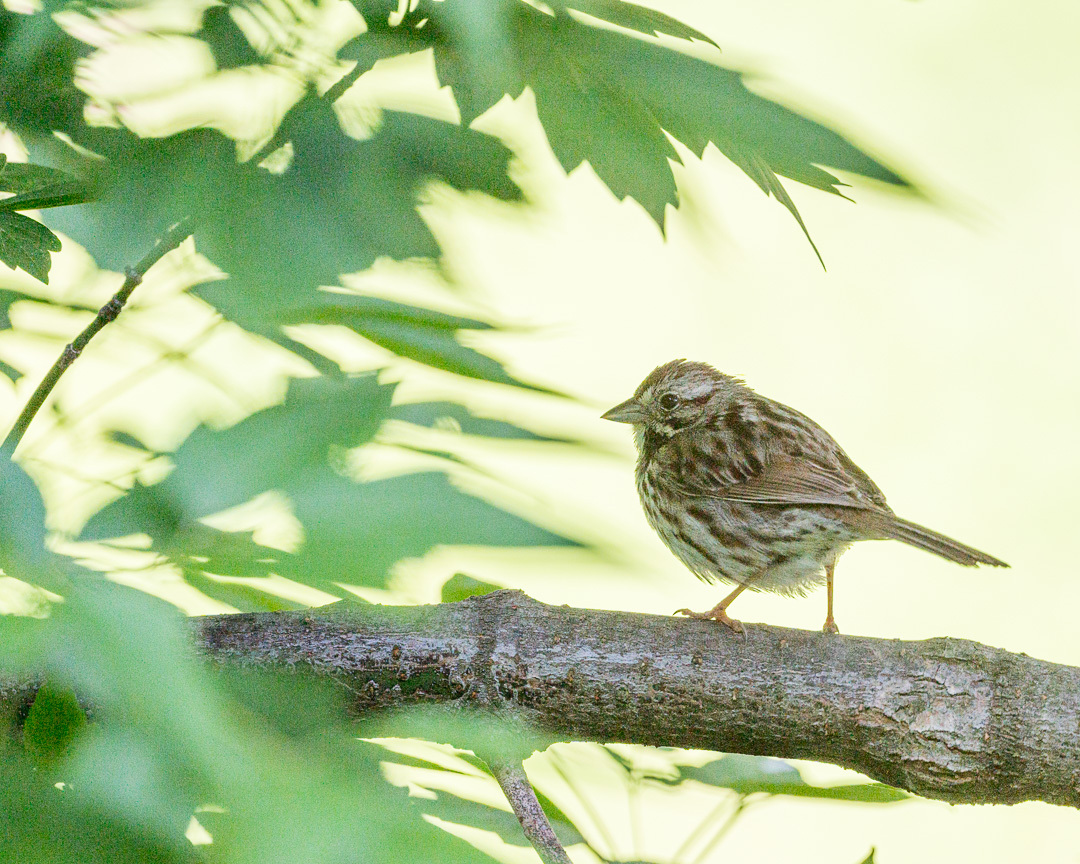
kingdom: Animalia
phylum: Chordata
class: Aves
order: Passeriformes
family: Passerellidae
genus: Melospiza
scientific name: Melospiza melodia
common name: Song sparrow
